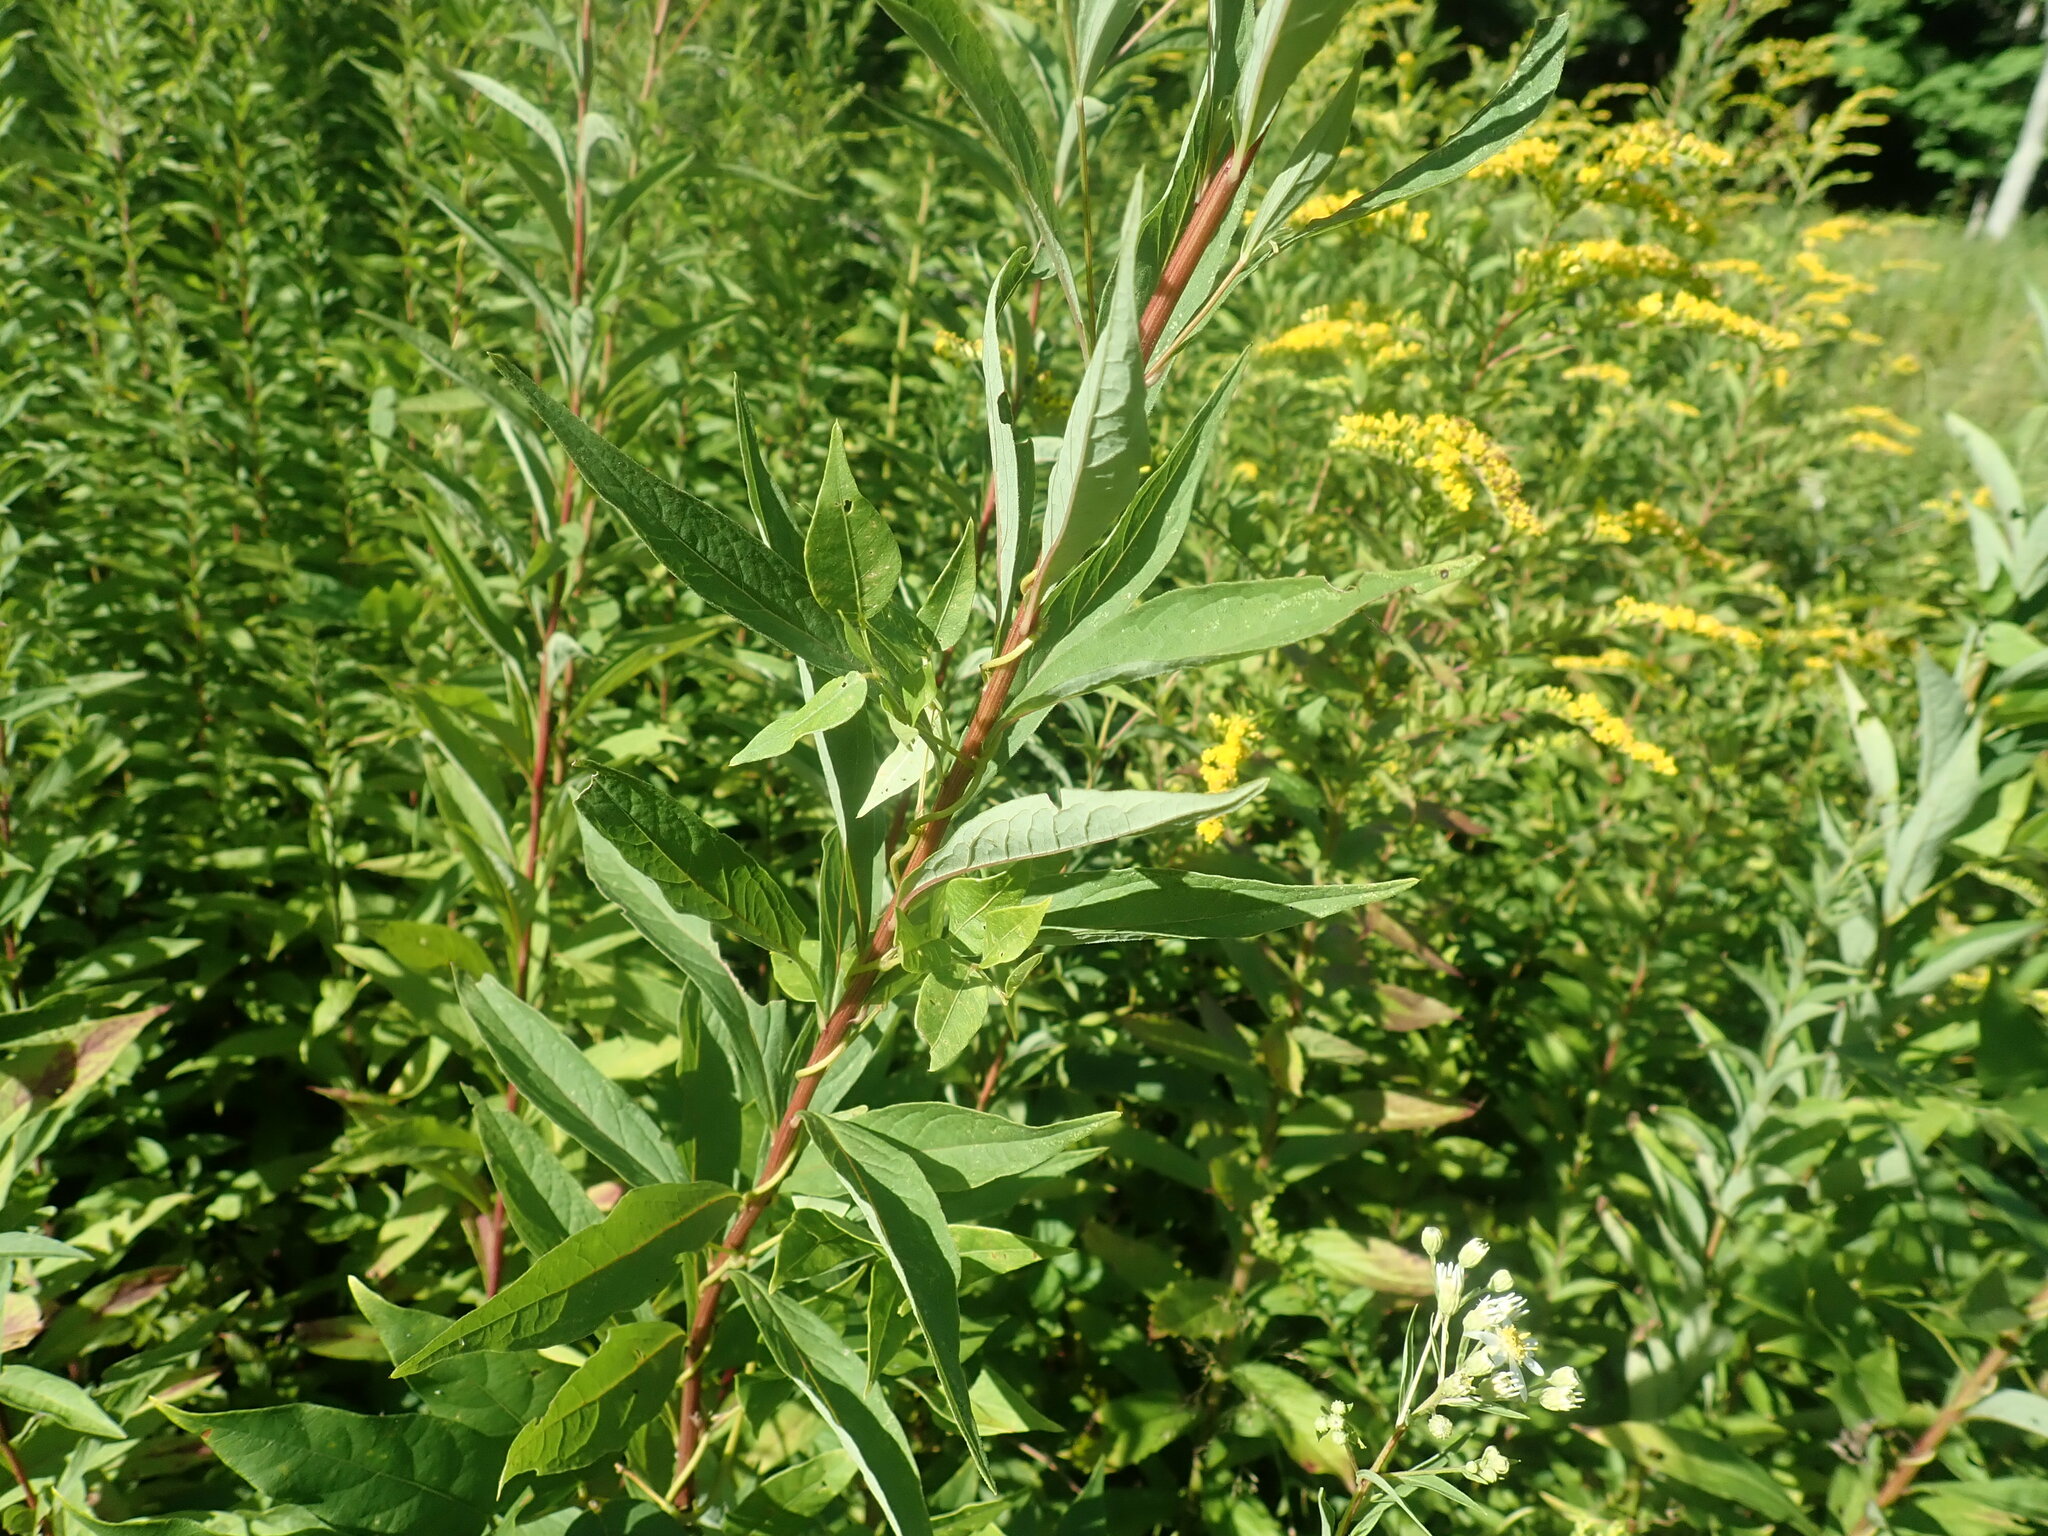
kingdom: Plantae
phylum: Tracheophyta
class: Magnoliopsida
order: Asterales
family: Asteraceae
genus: Doellingeria
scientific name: Doellingeria umbellata
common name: Flat-top white aster
